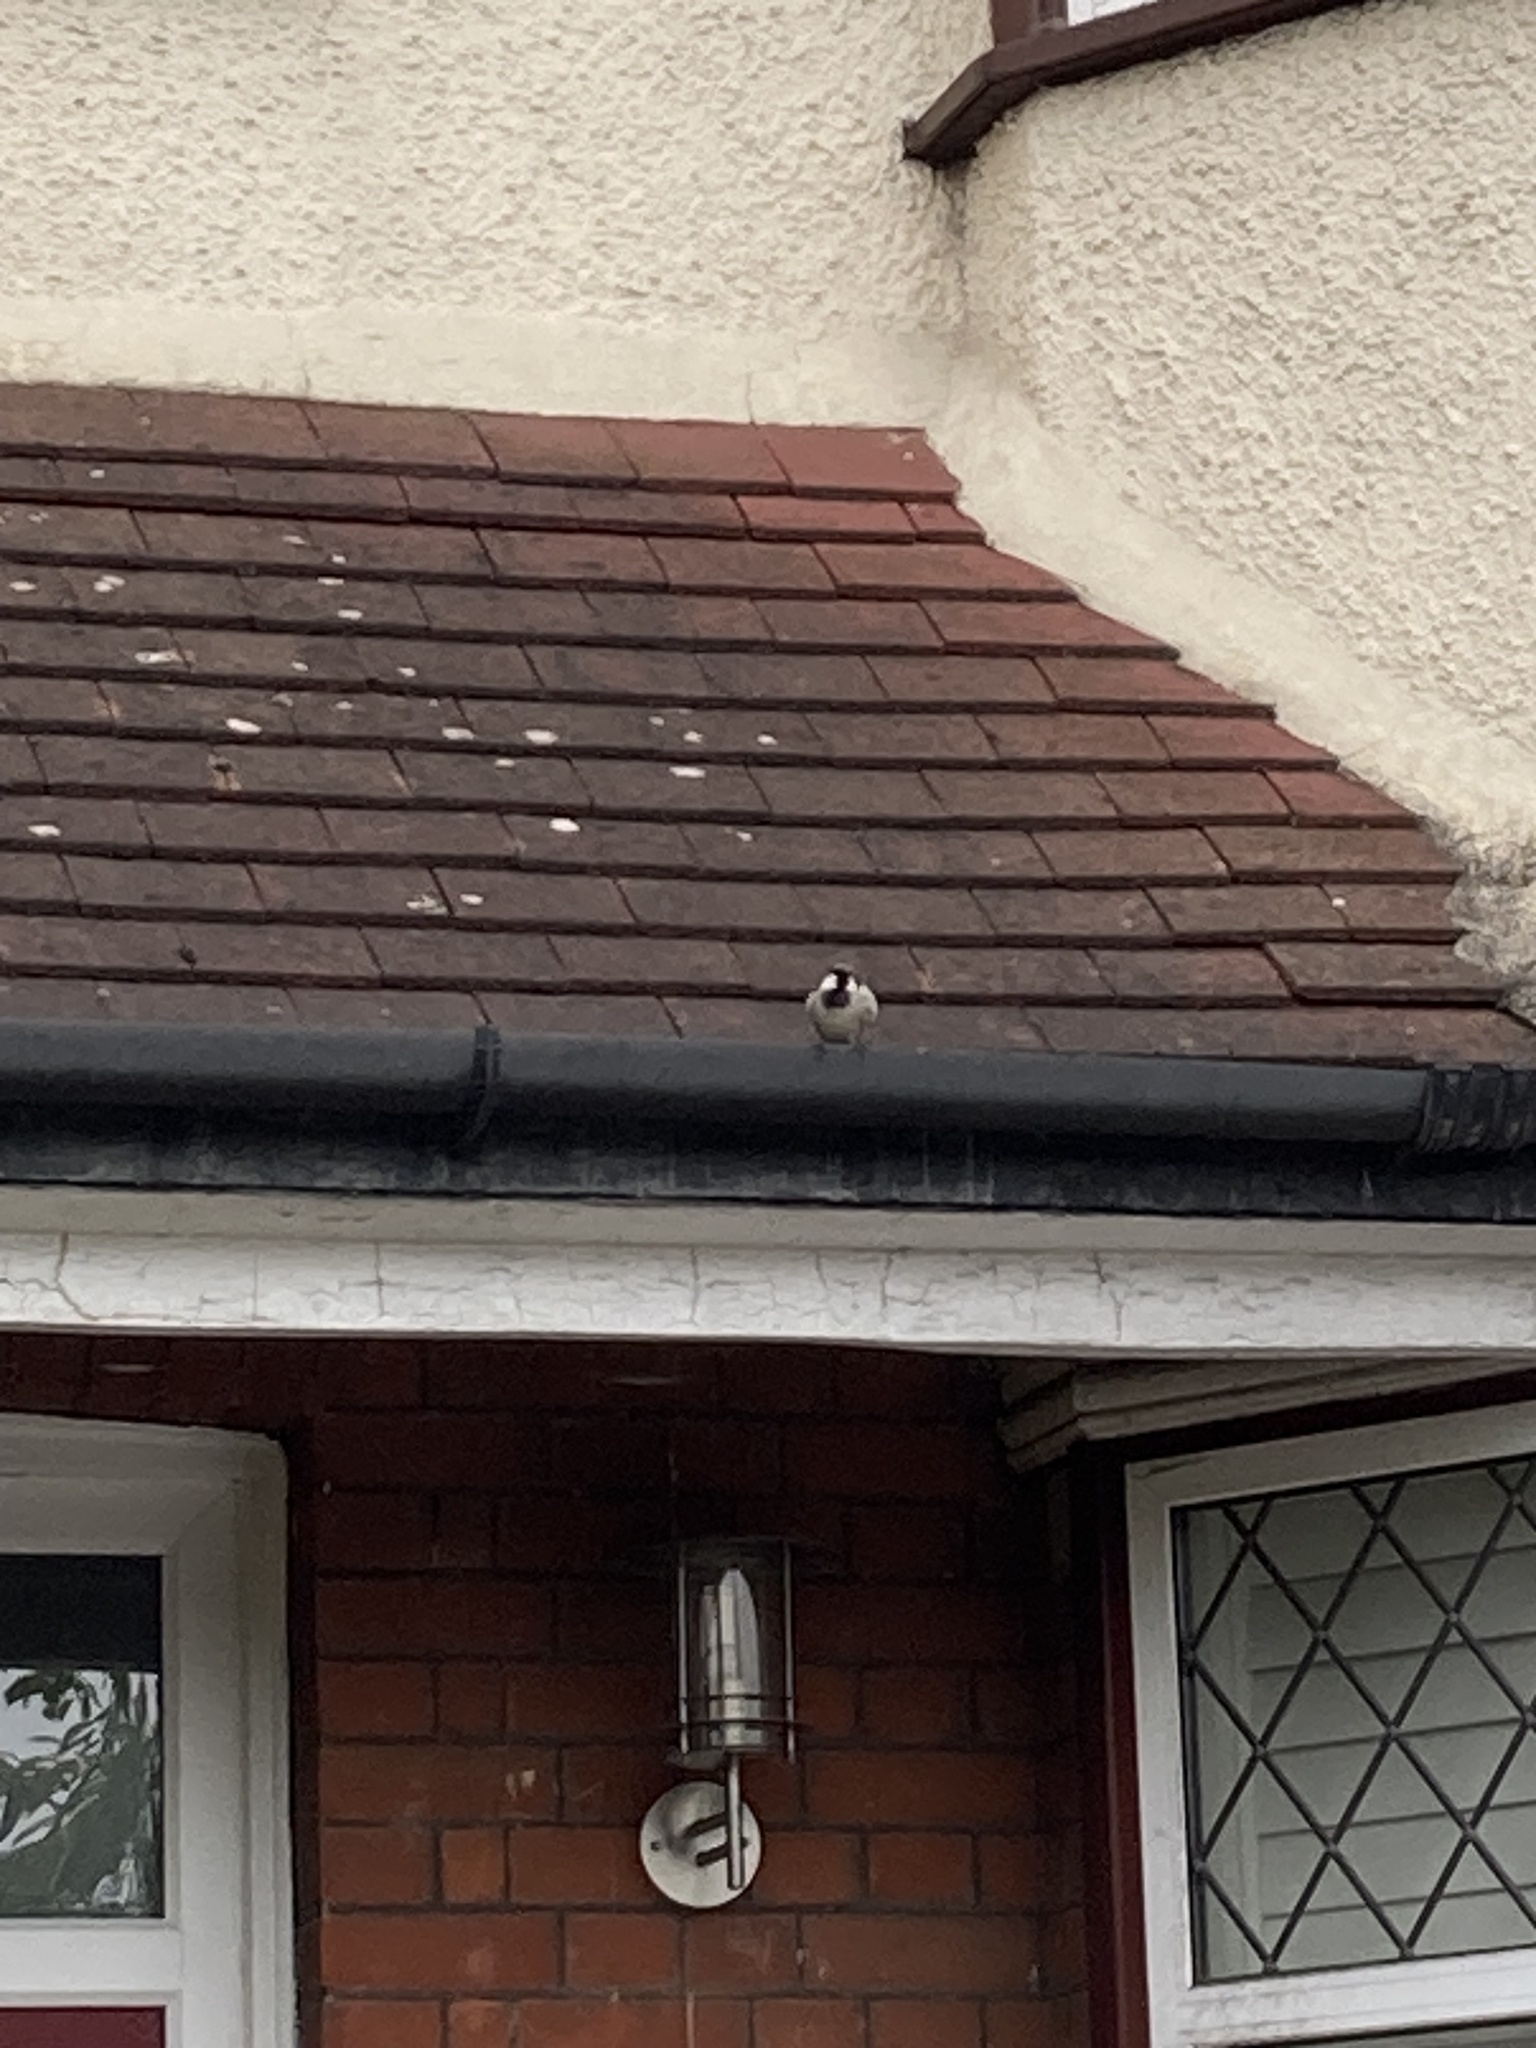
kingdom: Animalia
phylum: Chordata
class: Aves
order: Passeriformes
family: Passeridae
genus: Passer
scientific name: Passer domesticus
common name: House sparrow
